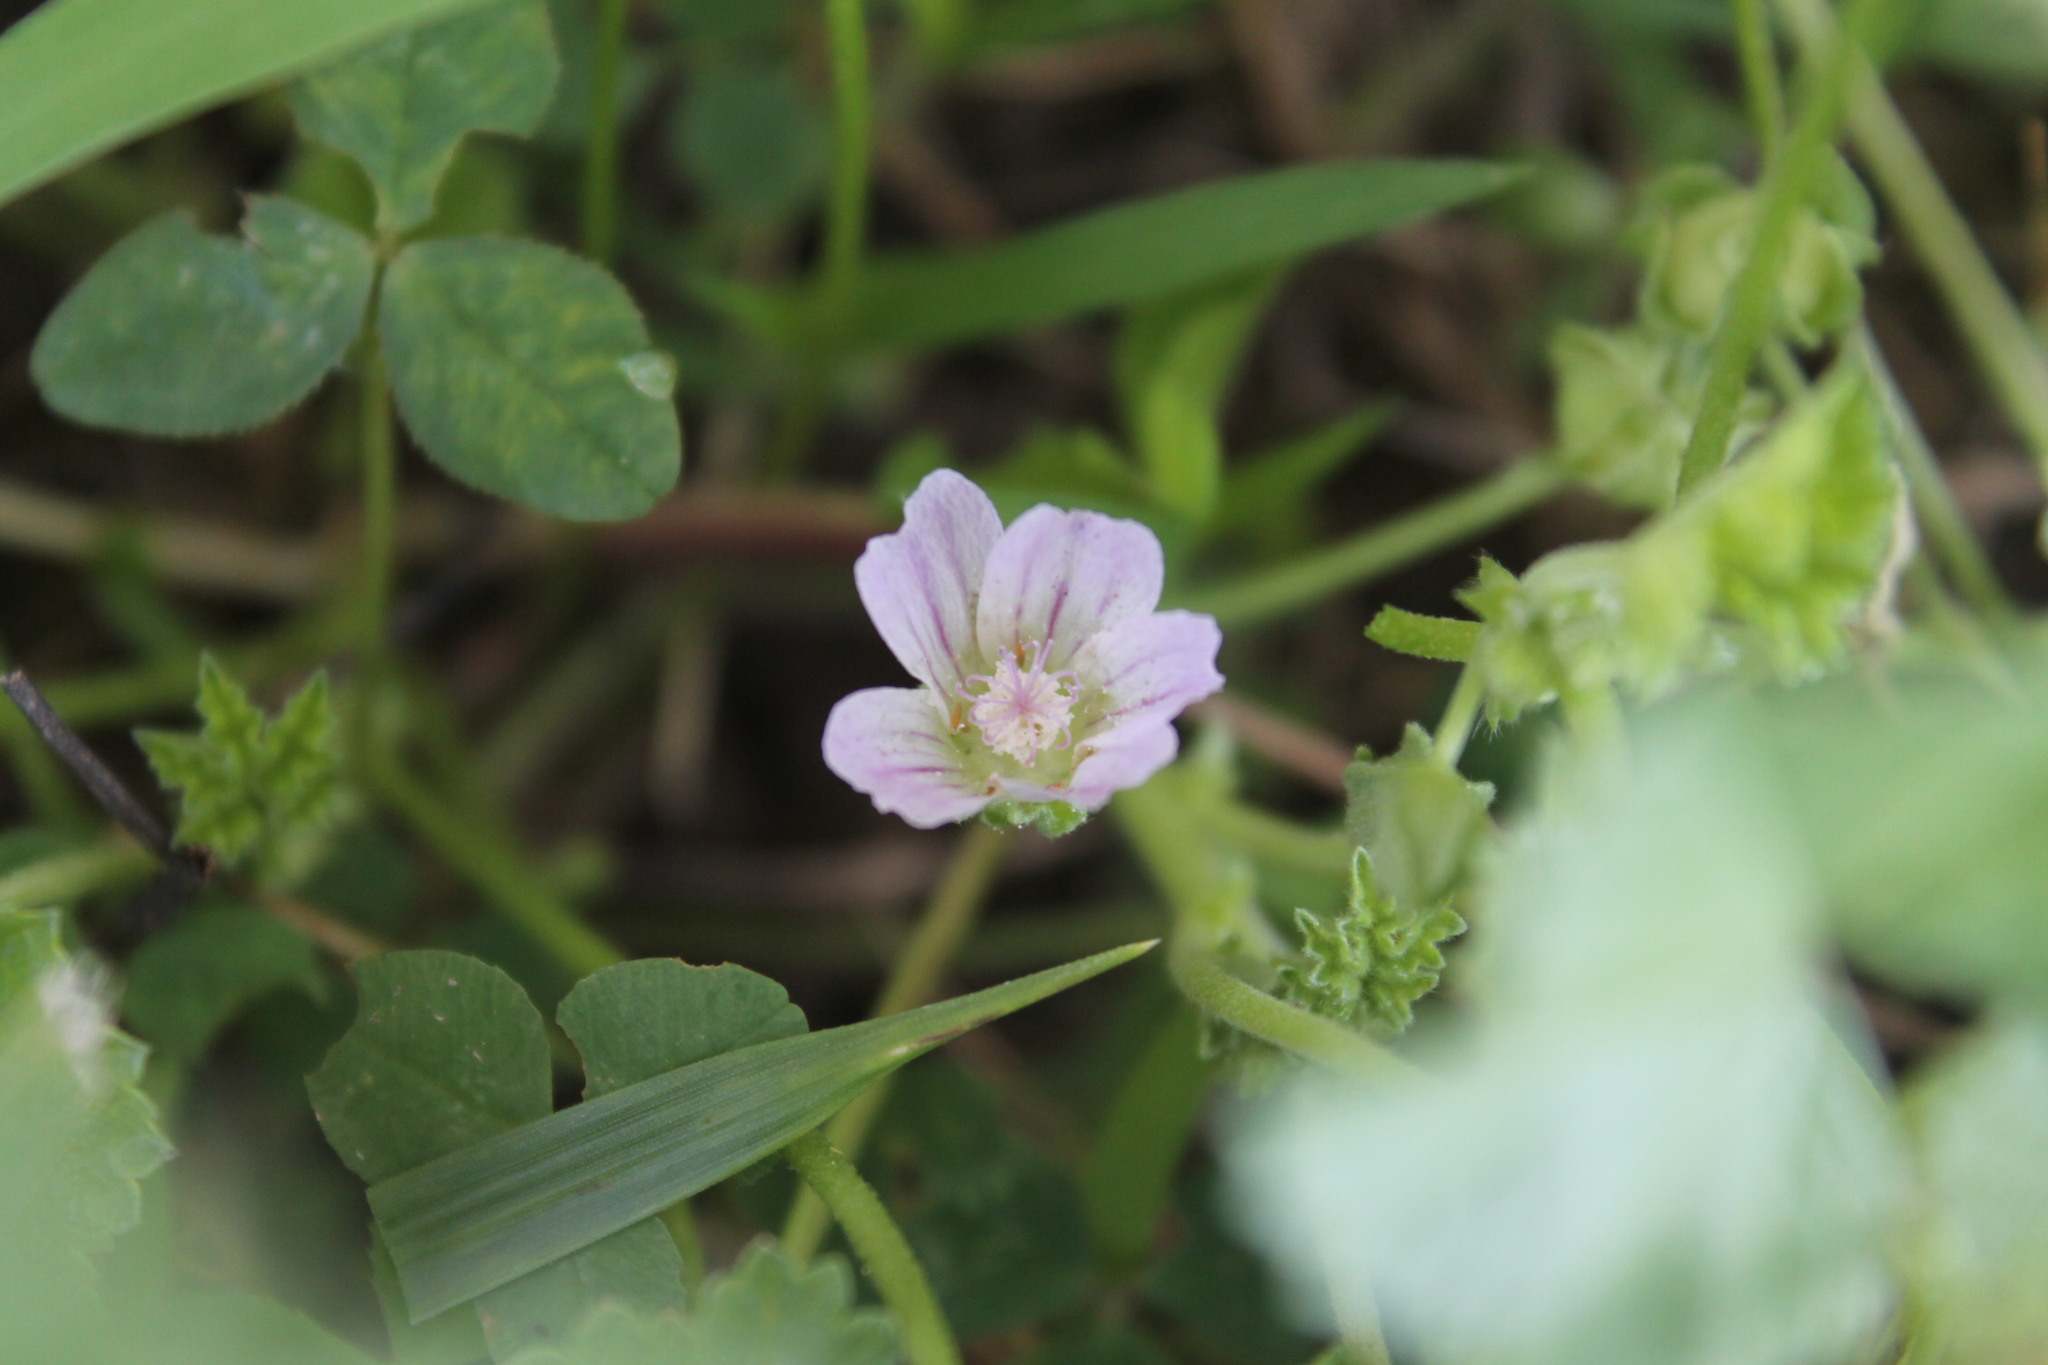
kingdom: Plantae
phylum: Tracheophyta
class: Magnoliopsida
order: Malvales
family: Malvaceae
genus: Malva
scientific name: Malva neglecta
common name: Common mallow
